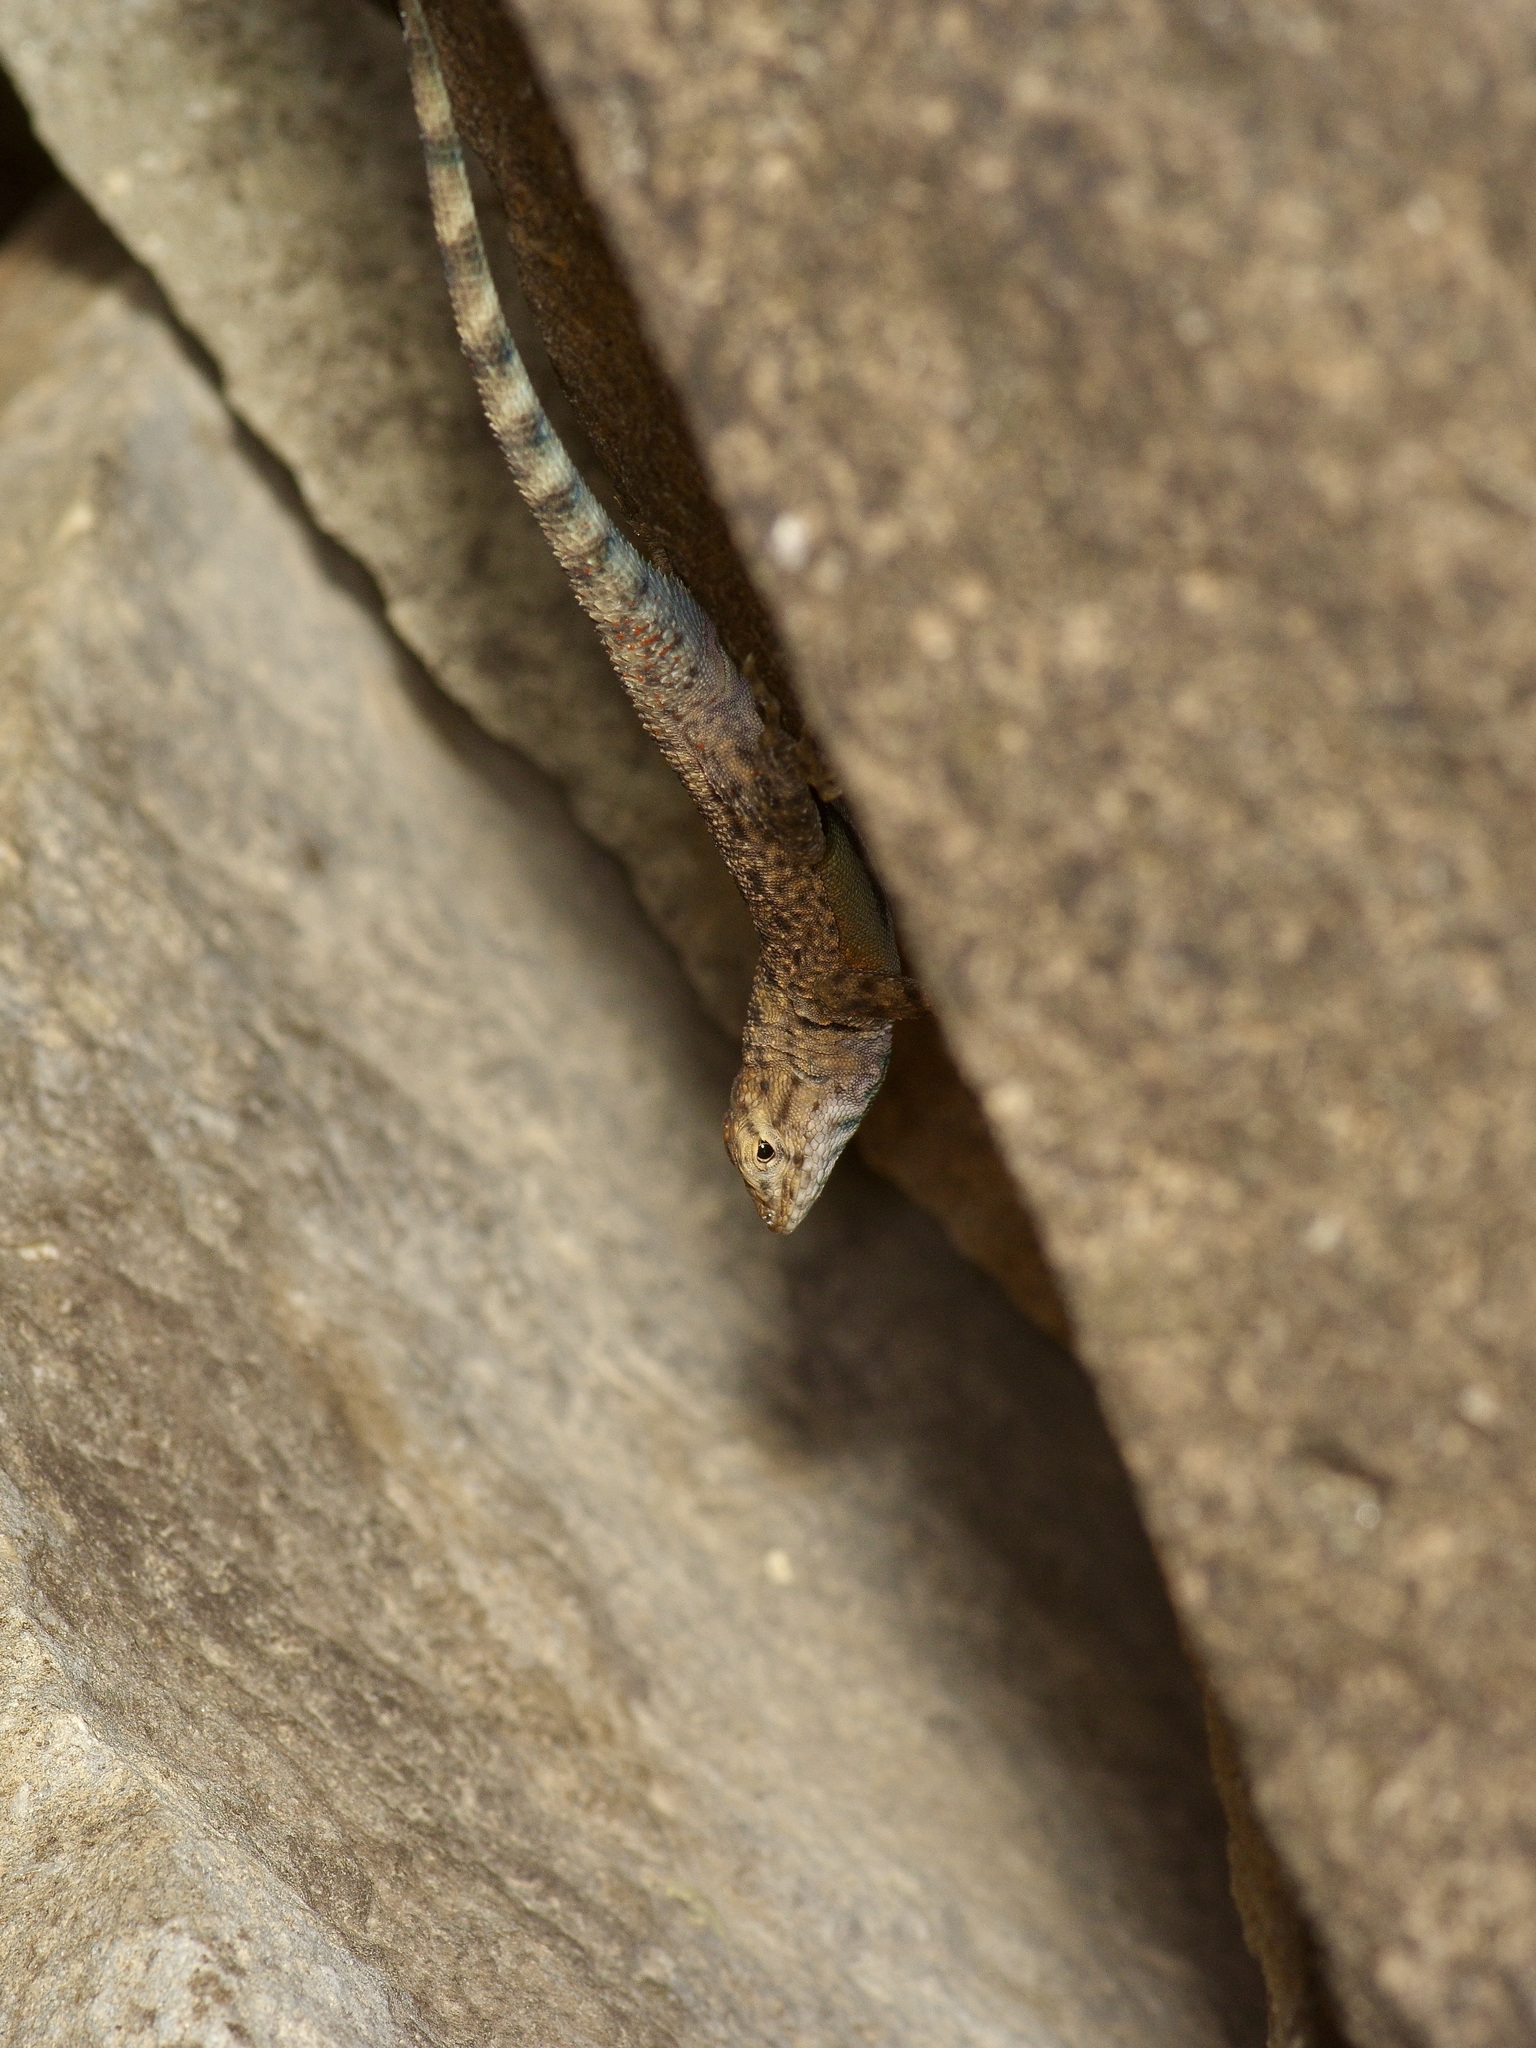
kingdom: Animalia
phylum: Chordata
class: Squamata
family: Phrynosomatidae
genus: Sceloporus
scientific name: Sceloporus merriami
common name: Canyon lizard
